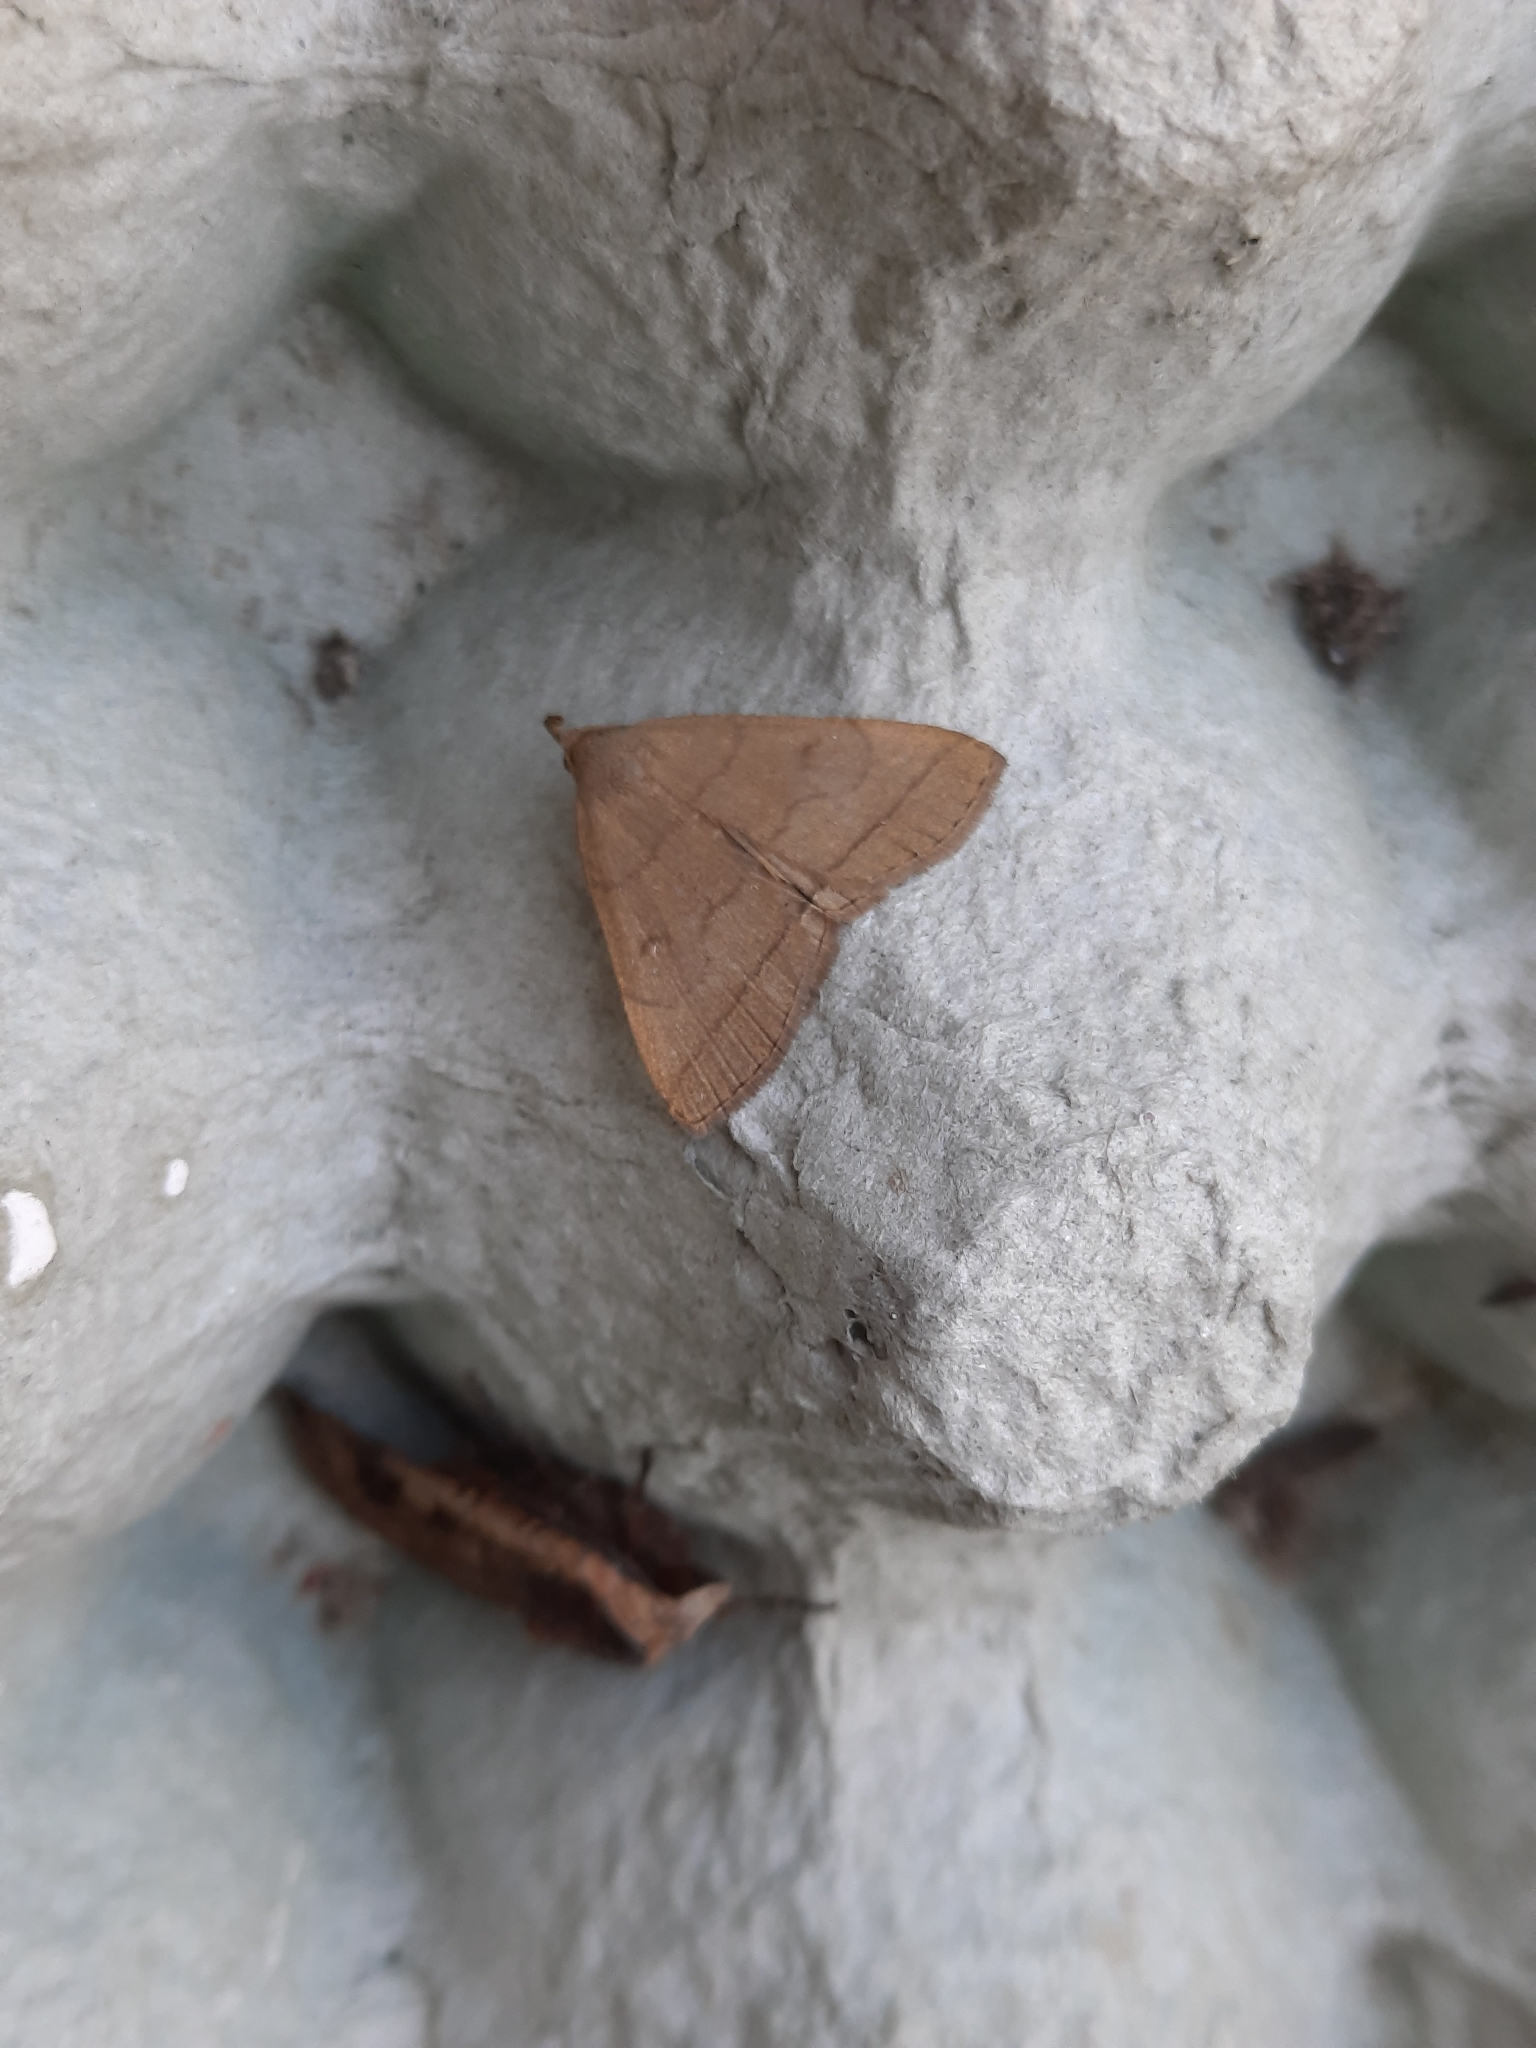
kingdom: Animalia
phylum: Arthropoda
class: Insecta
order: Lepidoptera
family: Erebidae
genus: Herminia
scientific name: Herminia tarsipennalis
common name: Fan-foot
